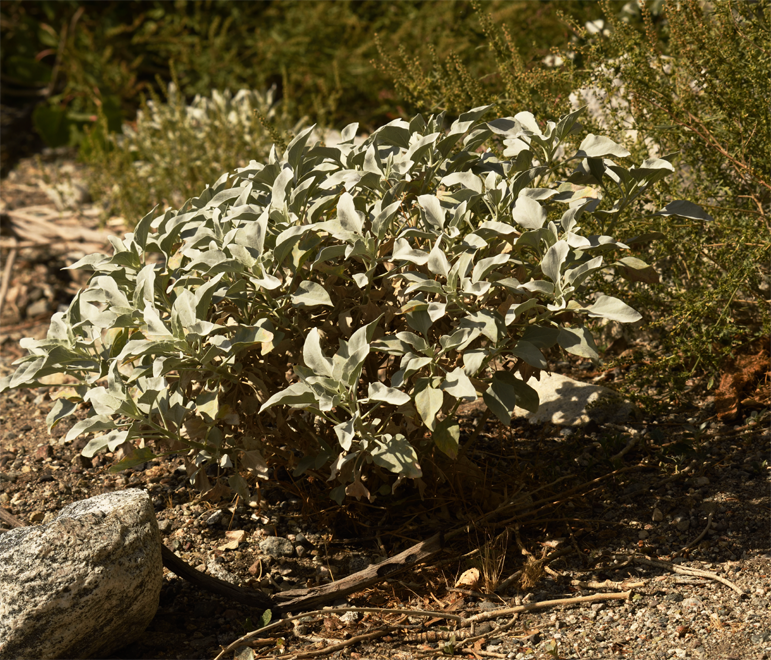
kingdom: Plantae
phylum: Tracheophyta
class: Magnoliopsida
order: Asterales
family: Asteraceae
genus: Encelia
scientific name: Encelia farinosa
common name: Brittlebush
